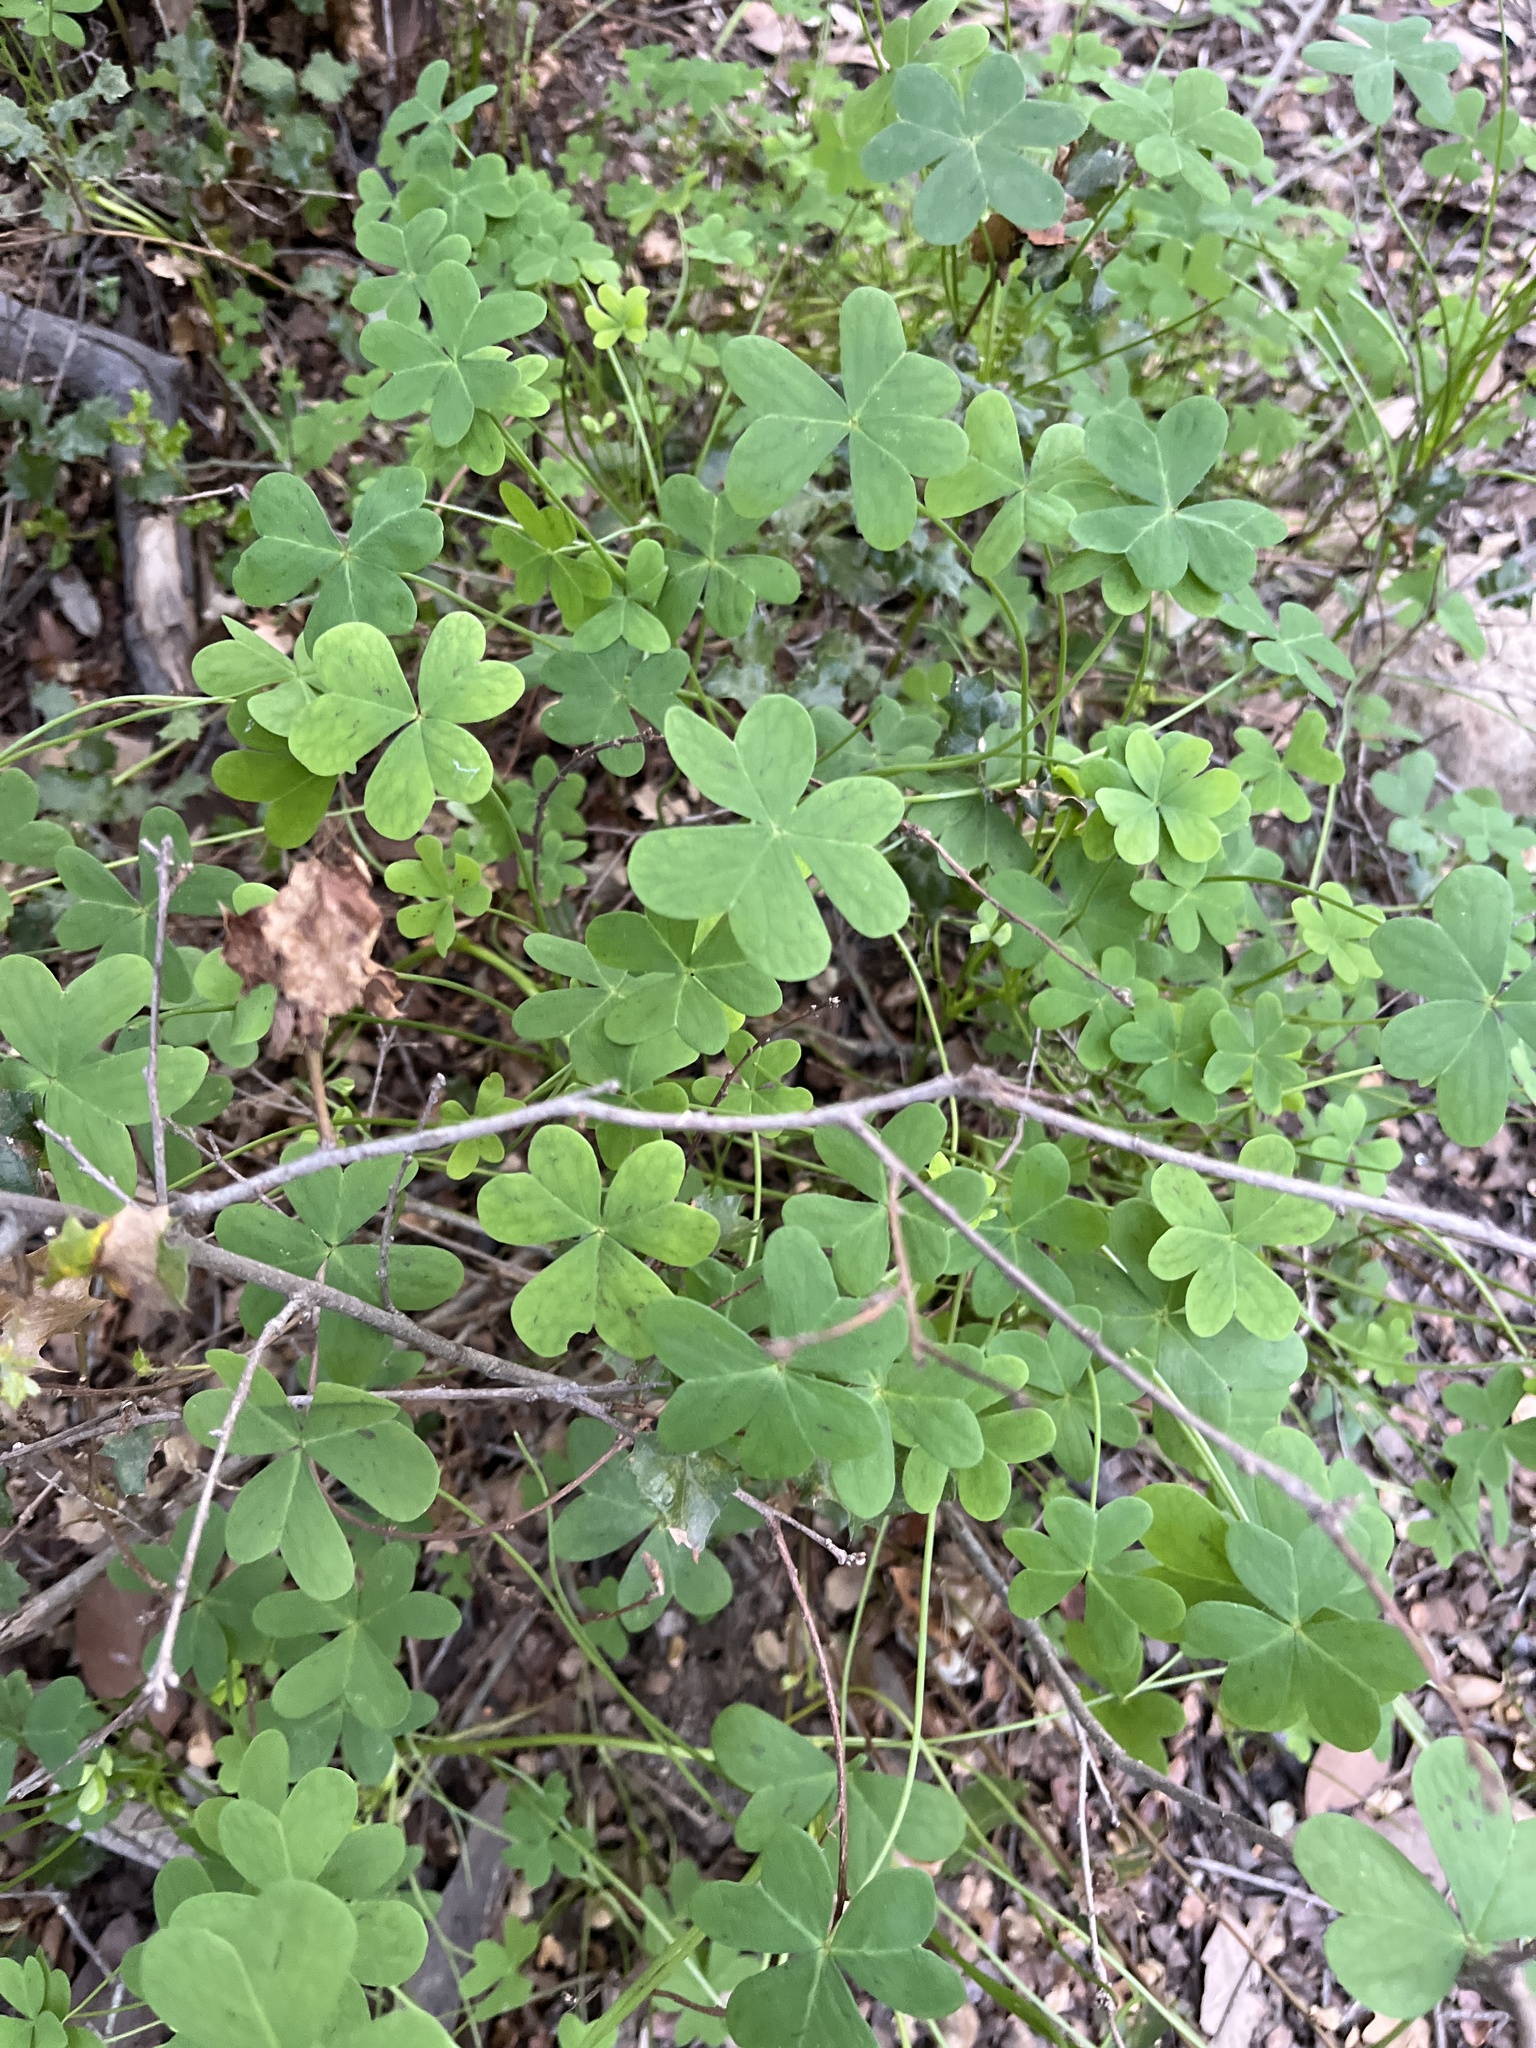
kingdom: Plantae
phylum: Tracheophyta
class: Magnoliopsida
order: Oxalidales
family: Oxalidaceae
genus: Oxalis
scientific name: Oxalis pes-caprae
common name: Bermuda-buttercup
